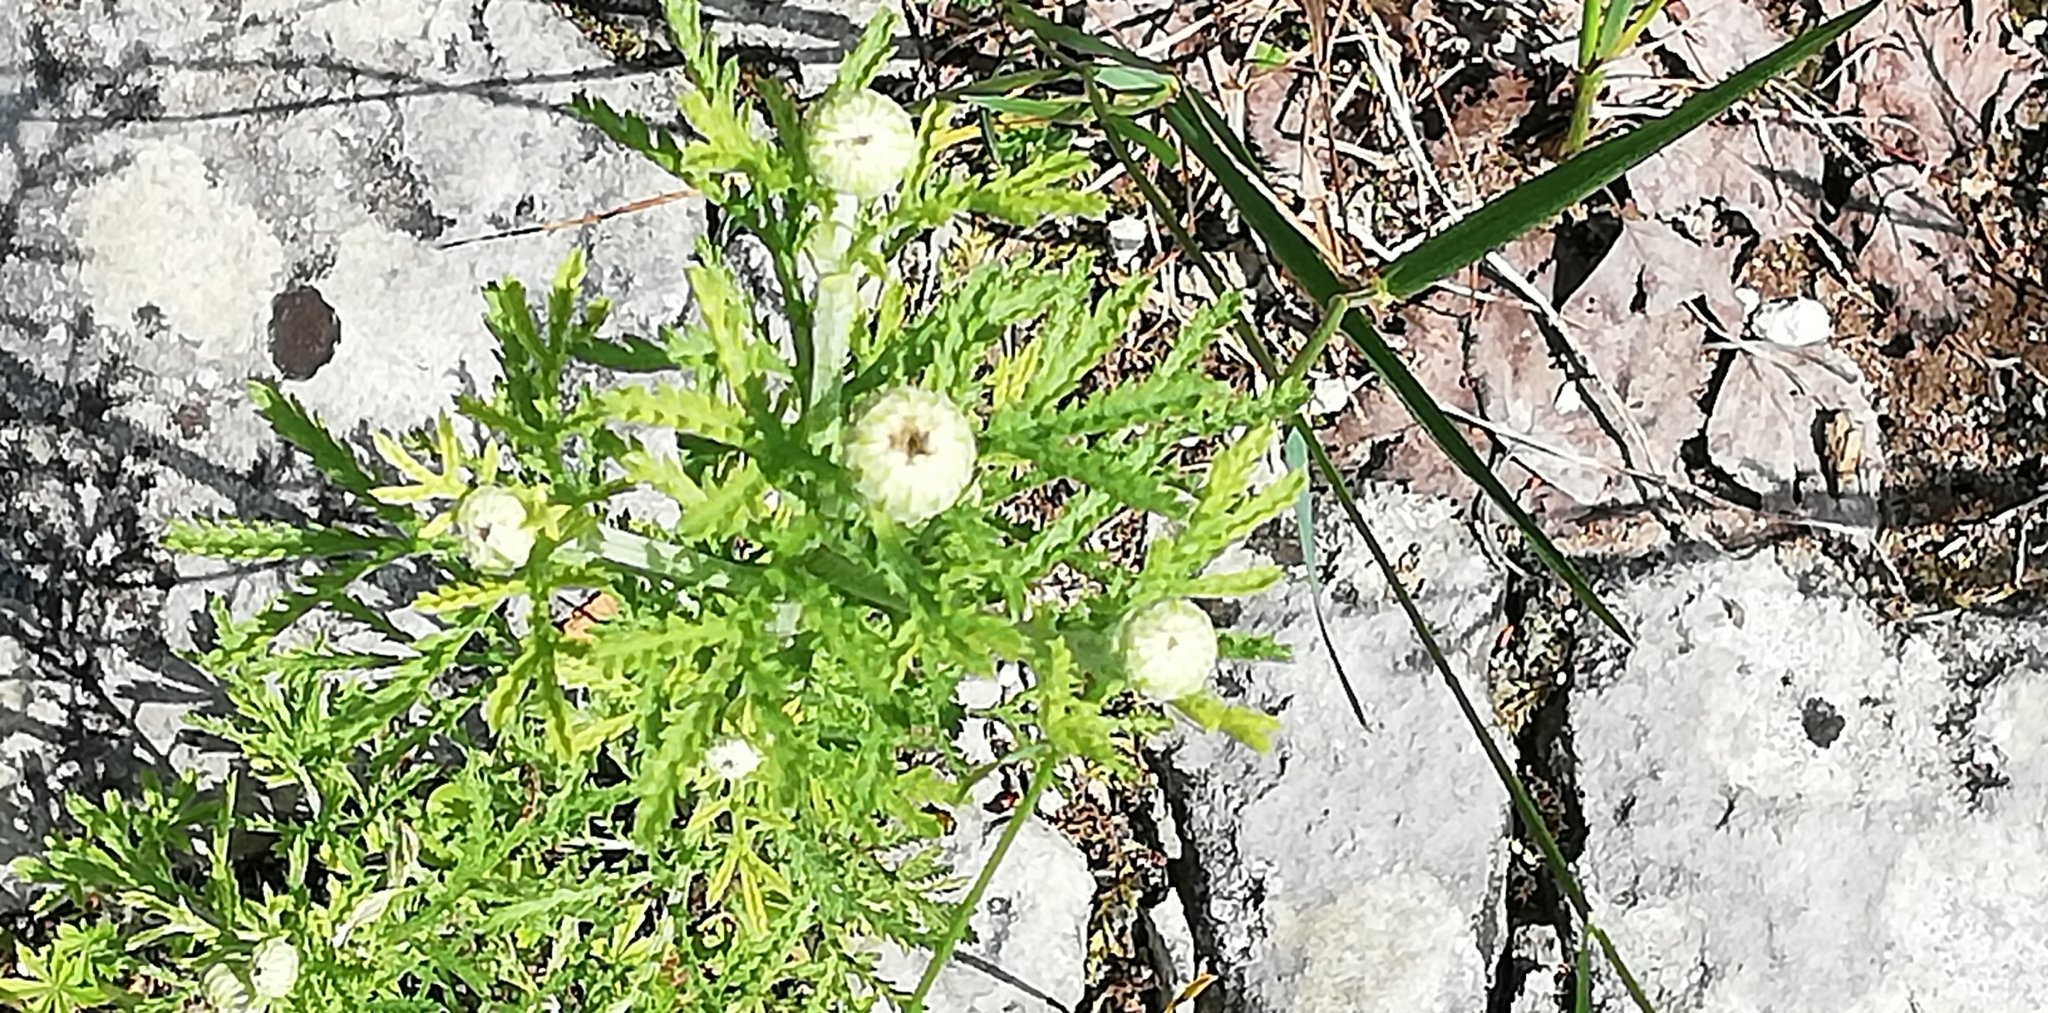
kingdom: Plantae
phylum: Tracheophyta
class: Magnoliopsida
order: Asterales
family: Asteraceae
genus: Cota
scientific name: Cota tinctoria
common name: Golden chamomile
